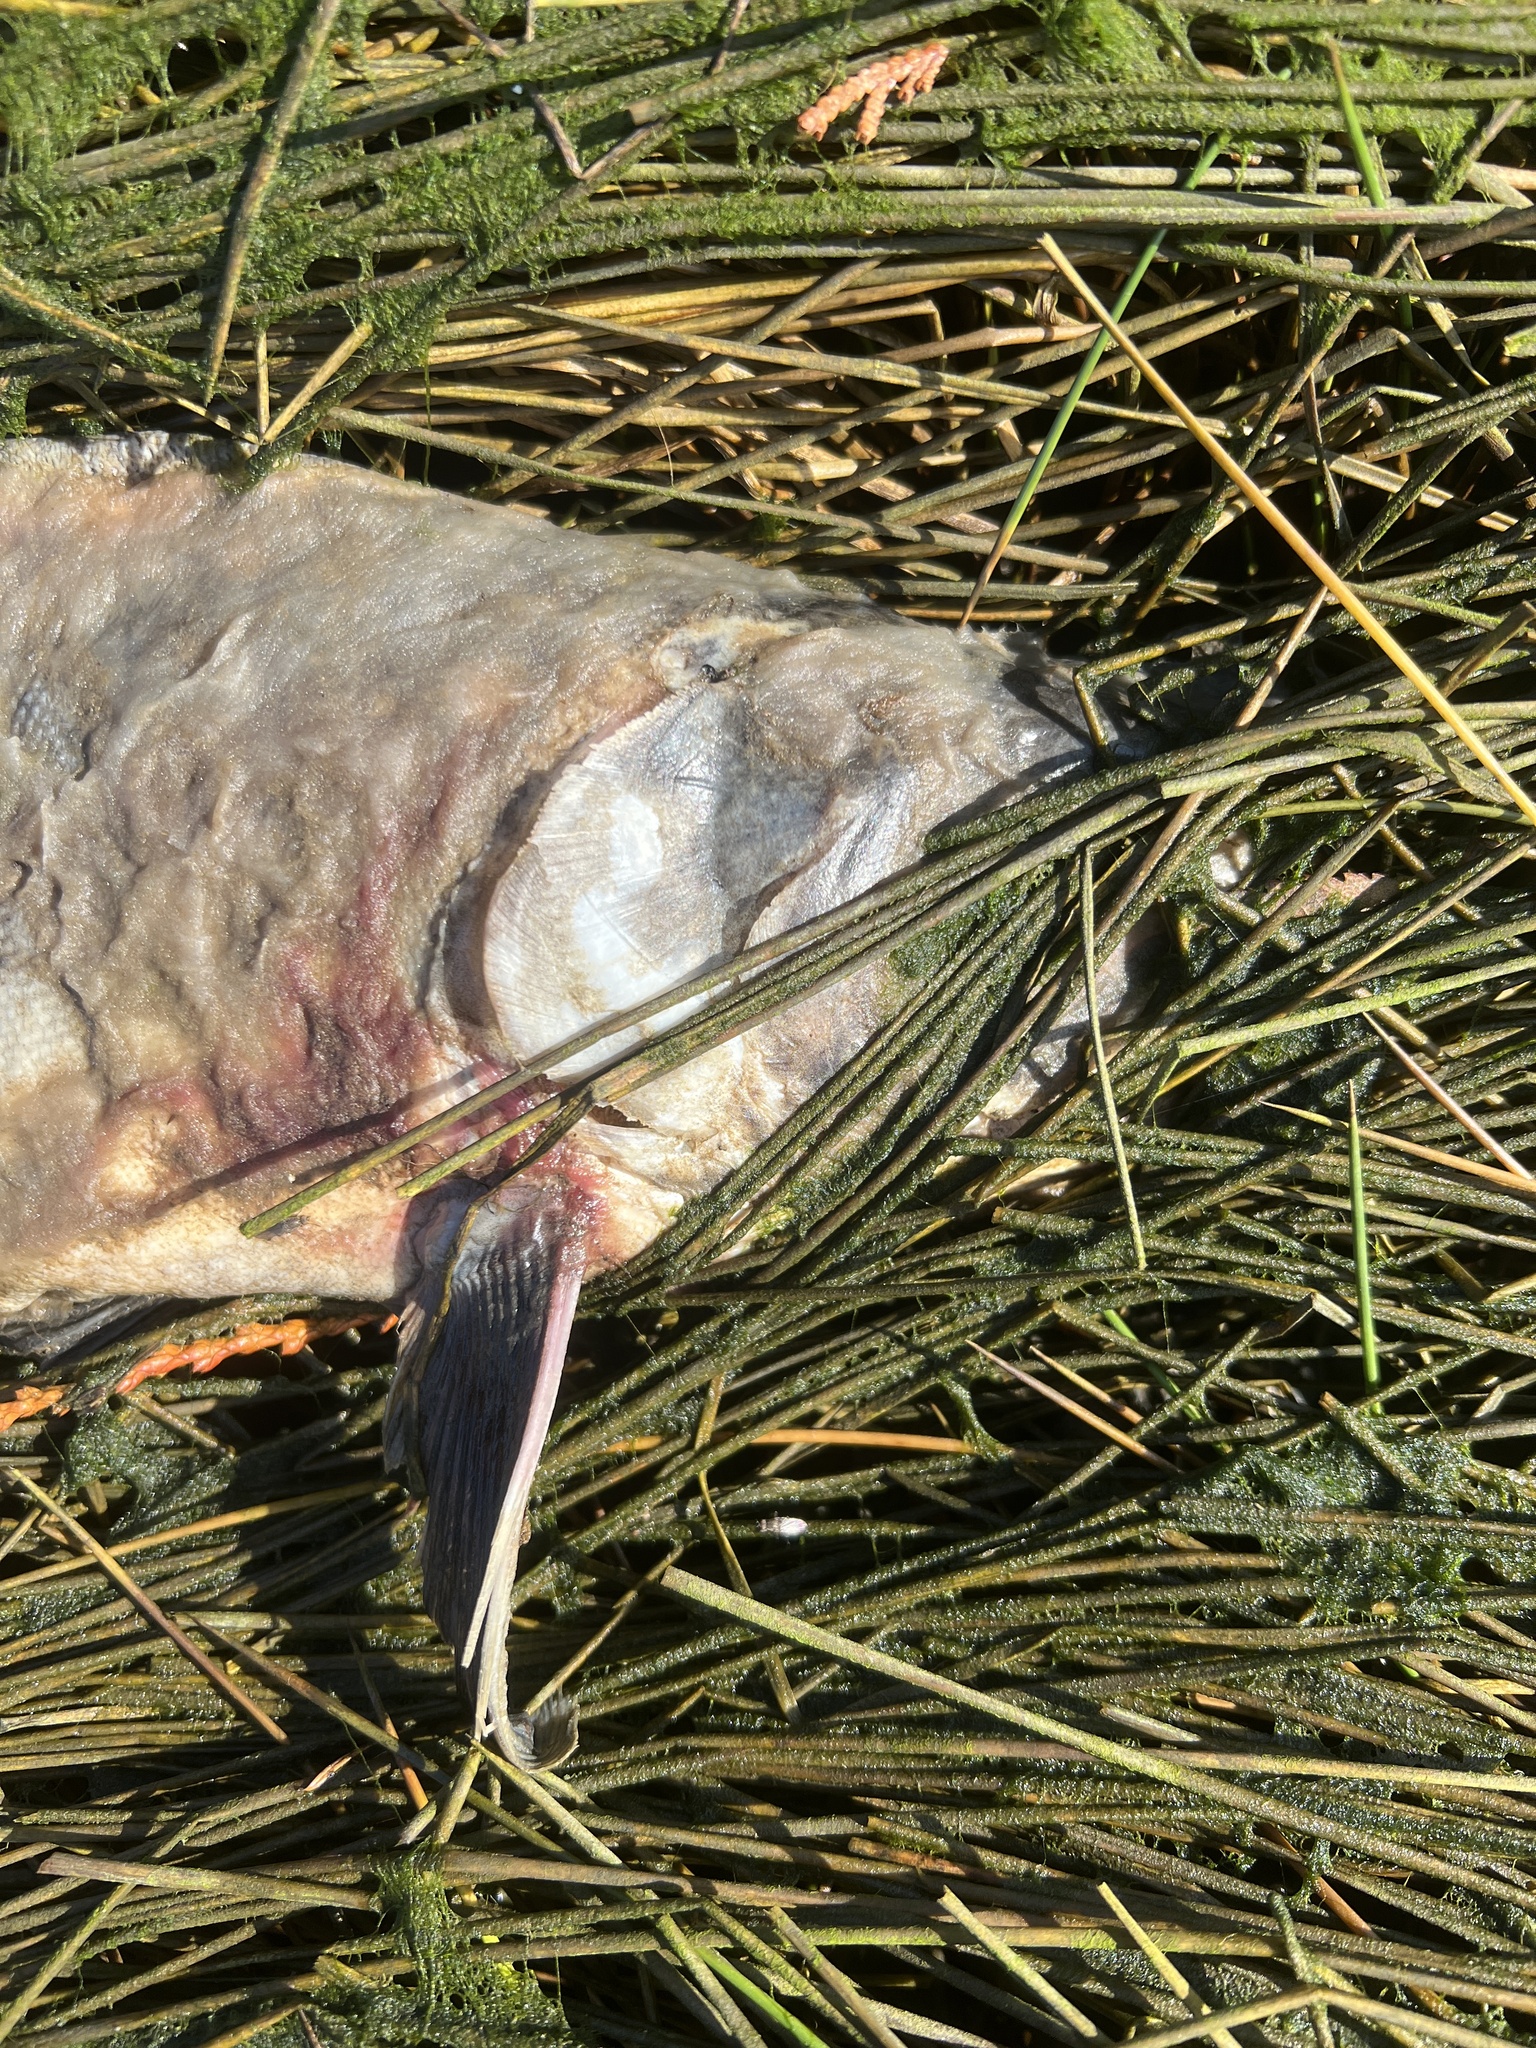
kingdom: Animalia
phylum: Chordata
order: Salmoniformes
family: Salmonidae
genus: Oncorhynchus
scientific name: Oncorhynchus gorbuscha
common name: Humpback salmon
